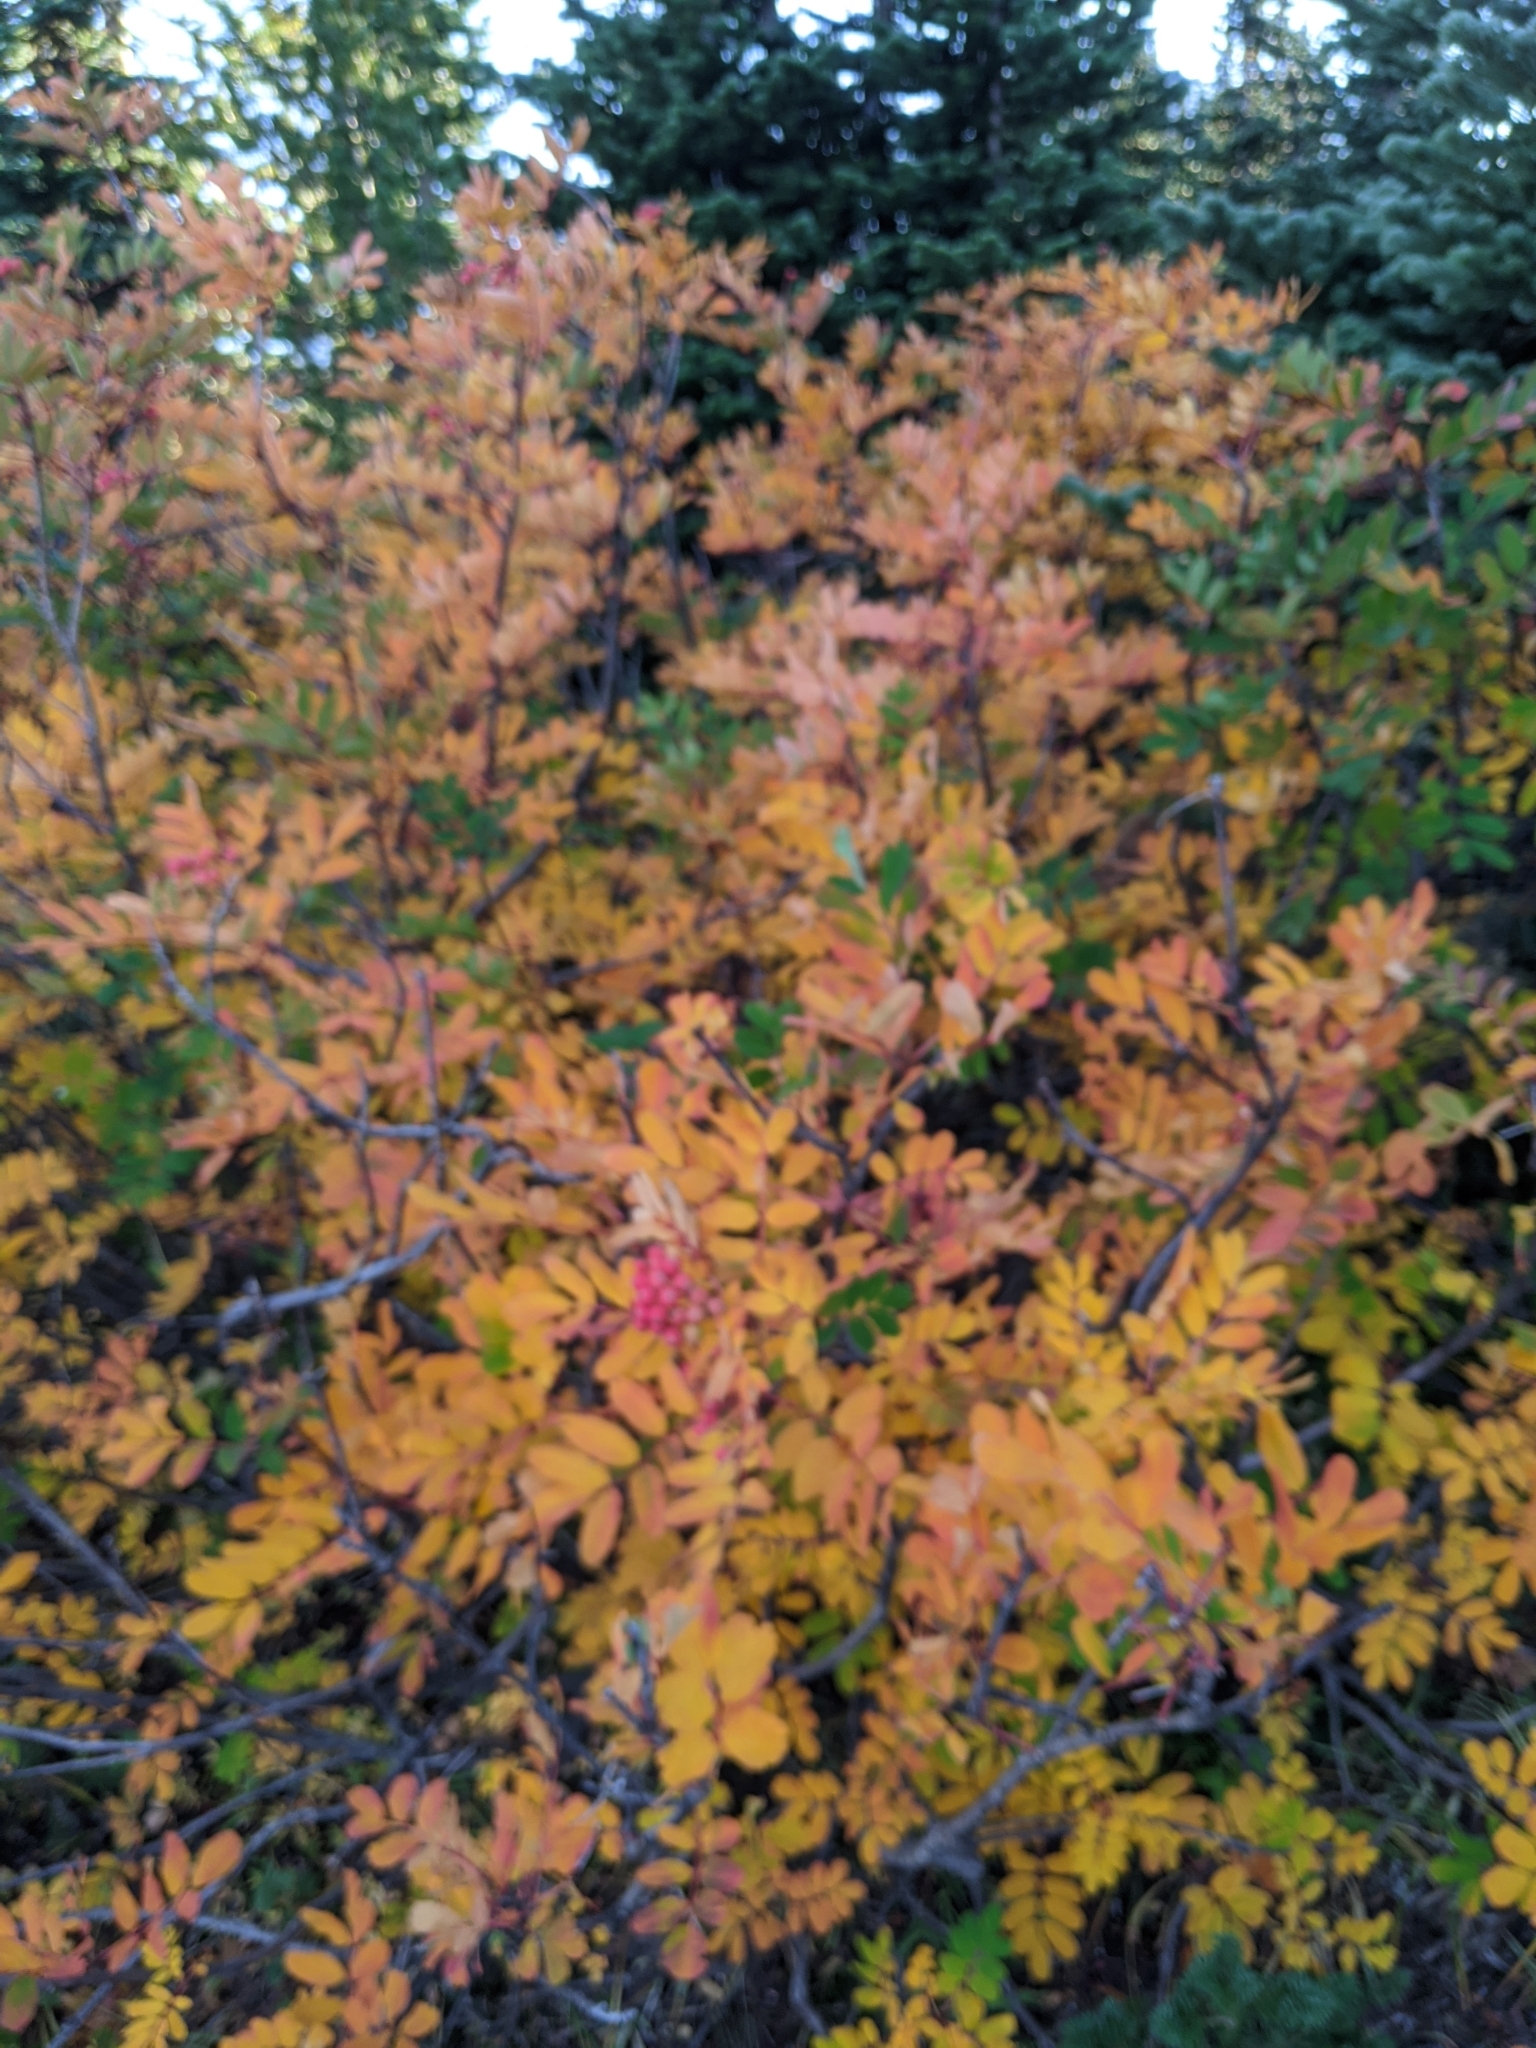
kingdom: Plantae
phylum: Tracheophyta
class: Magnoliopsida
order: Rosales
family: Rosaceae
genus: Sorbus
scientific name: Sorbus sitchensis
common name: Sitka mountain-ash
